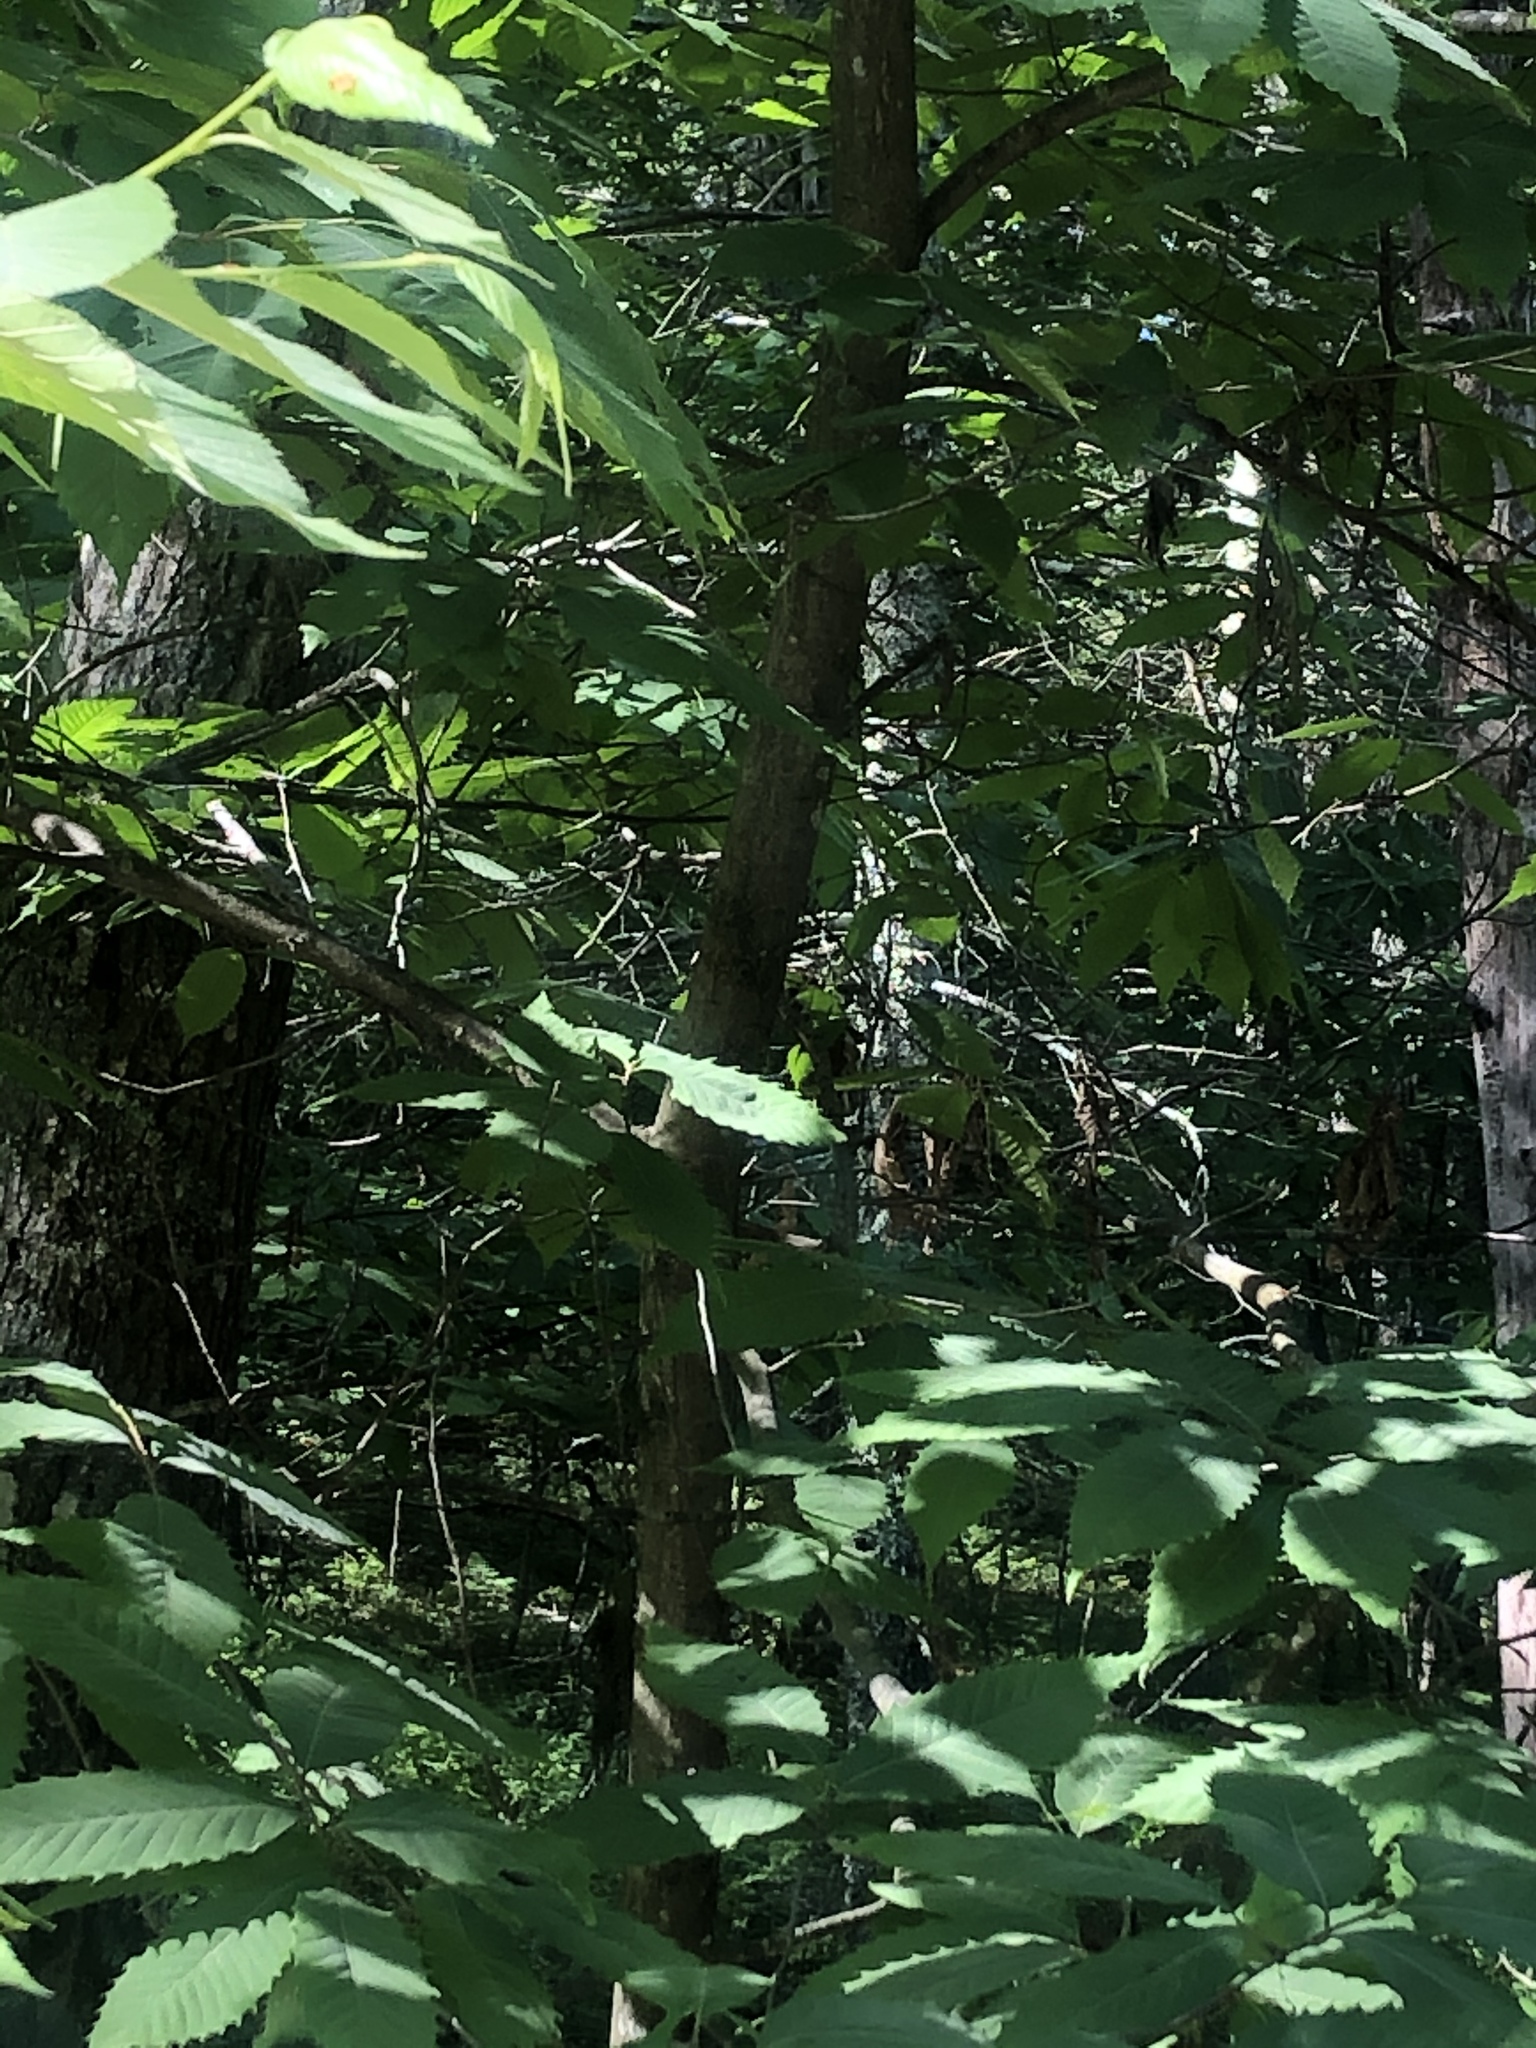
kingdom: Plantae
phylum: Tracheophyta
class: Magnoliopsida
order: Fagales
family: Fagaceae
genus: Castanea
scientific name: Castanea dentata
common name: American chestnut
